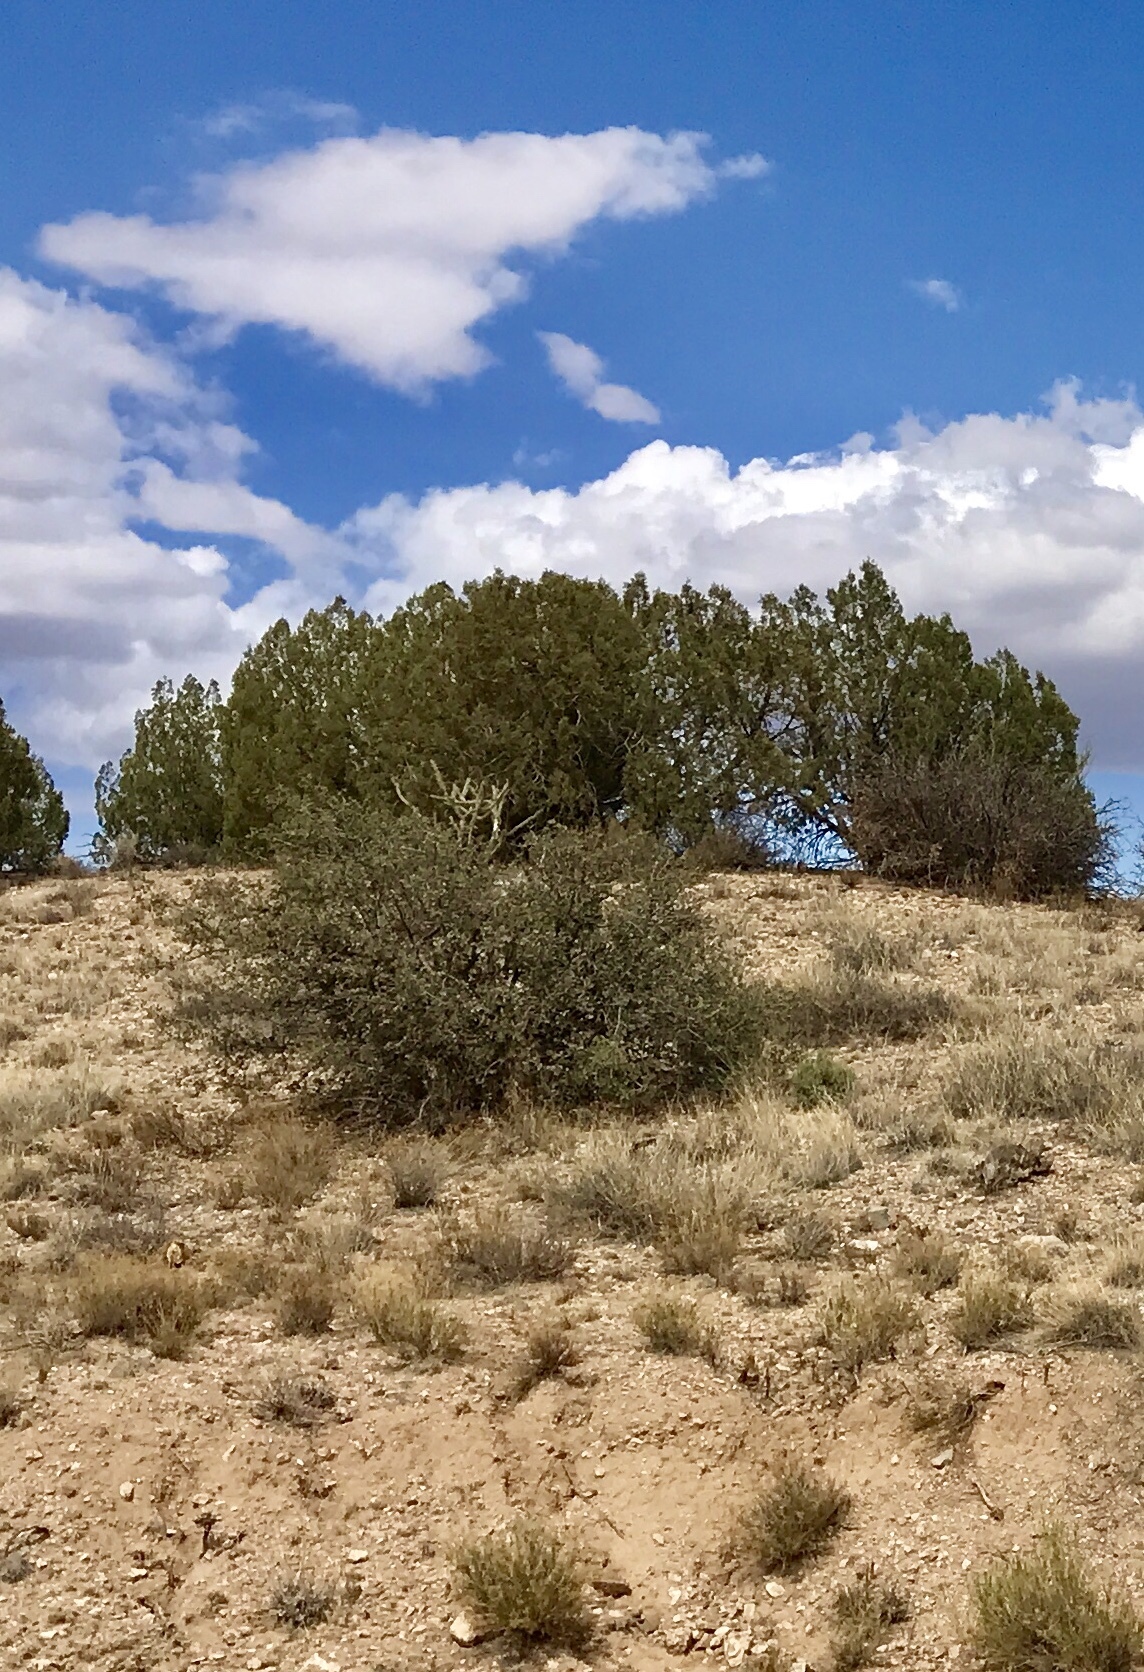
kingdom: Plantae
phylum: Tracheophyta
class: Magnoliopsida
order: Fagales
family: Fagaceae
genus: Quercus
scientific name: Quercus turbinella
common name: Sonoran scrub oak
